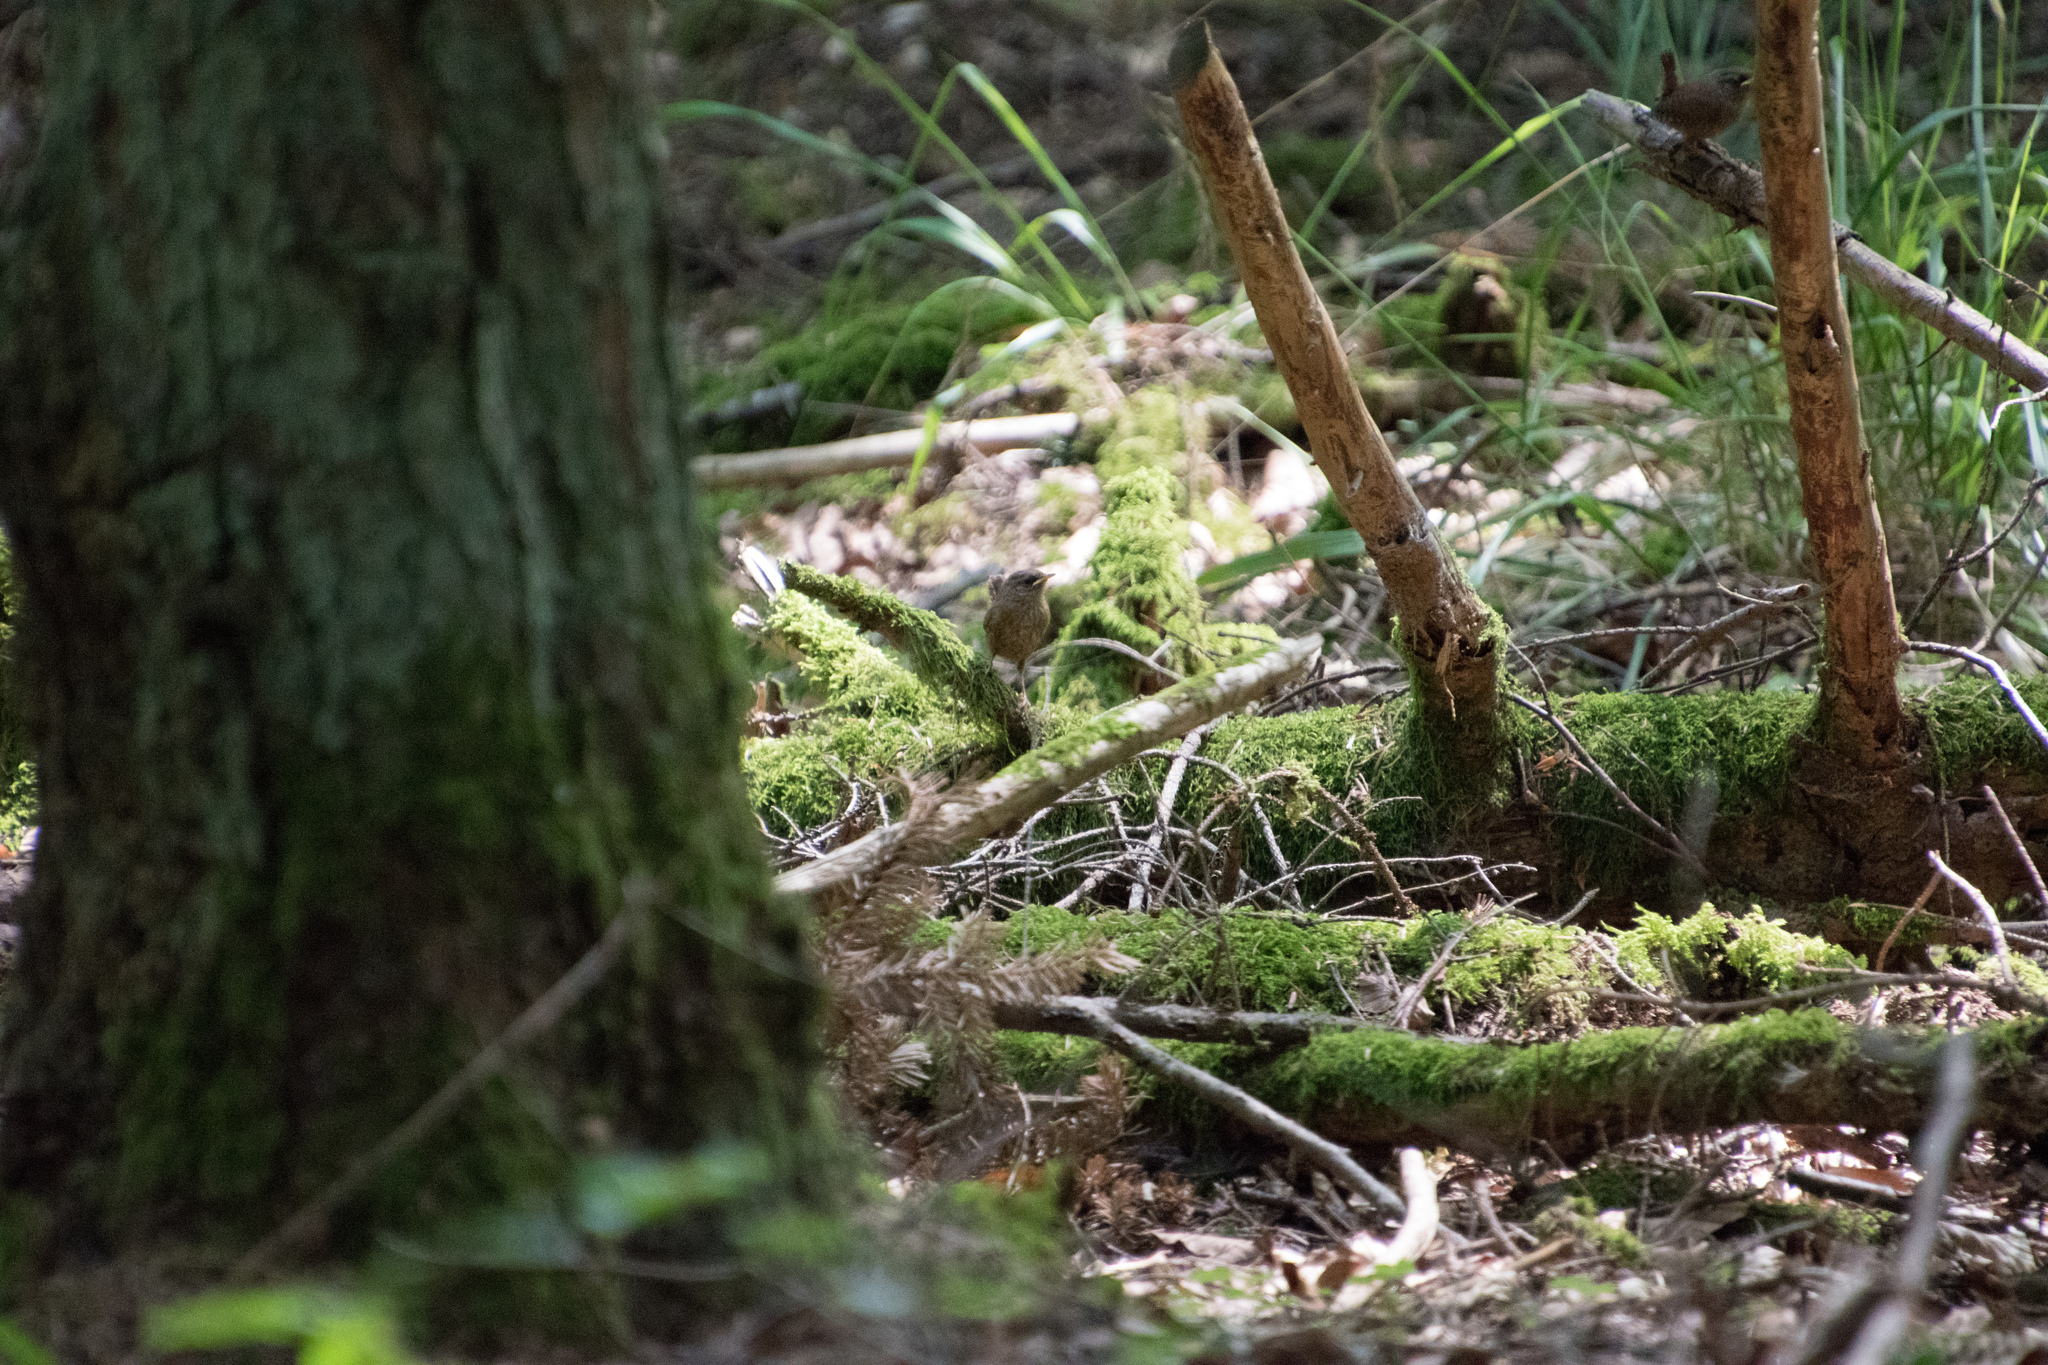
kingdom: Animalia
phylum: Chordata
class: Aves
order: Passeriformes
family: Troglodytidae
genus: Troglodytes
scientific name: Troglodytes troglodytes
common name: Eurasian wren
